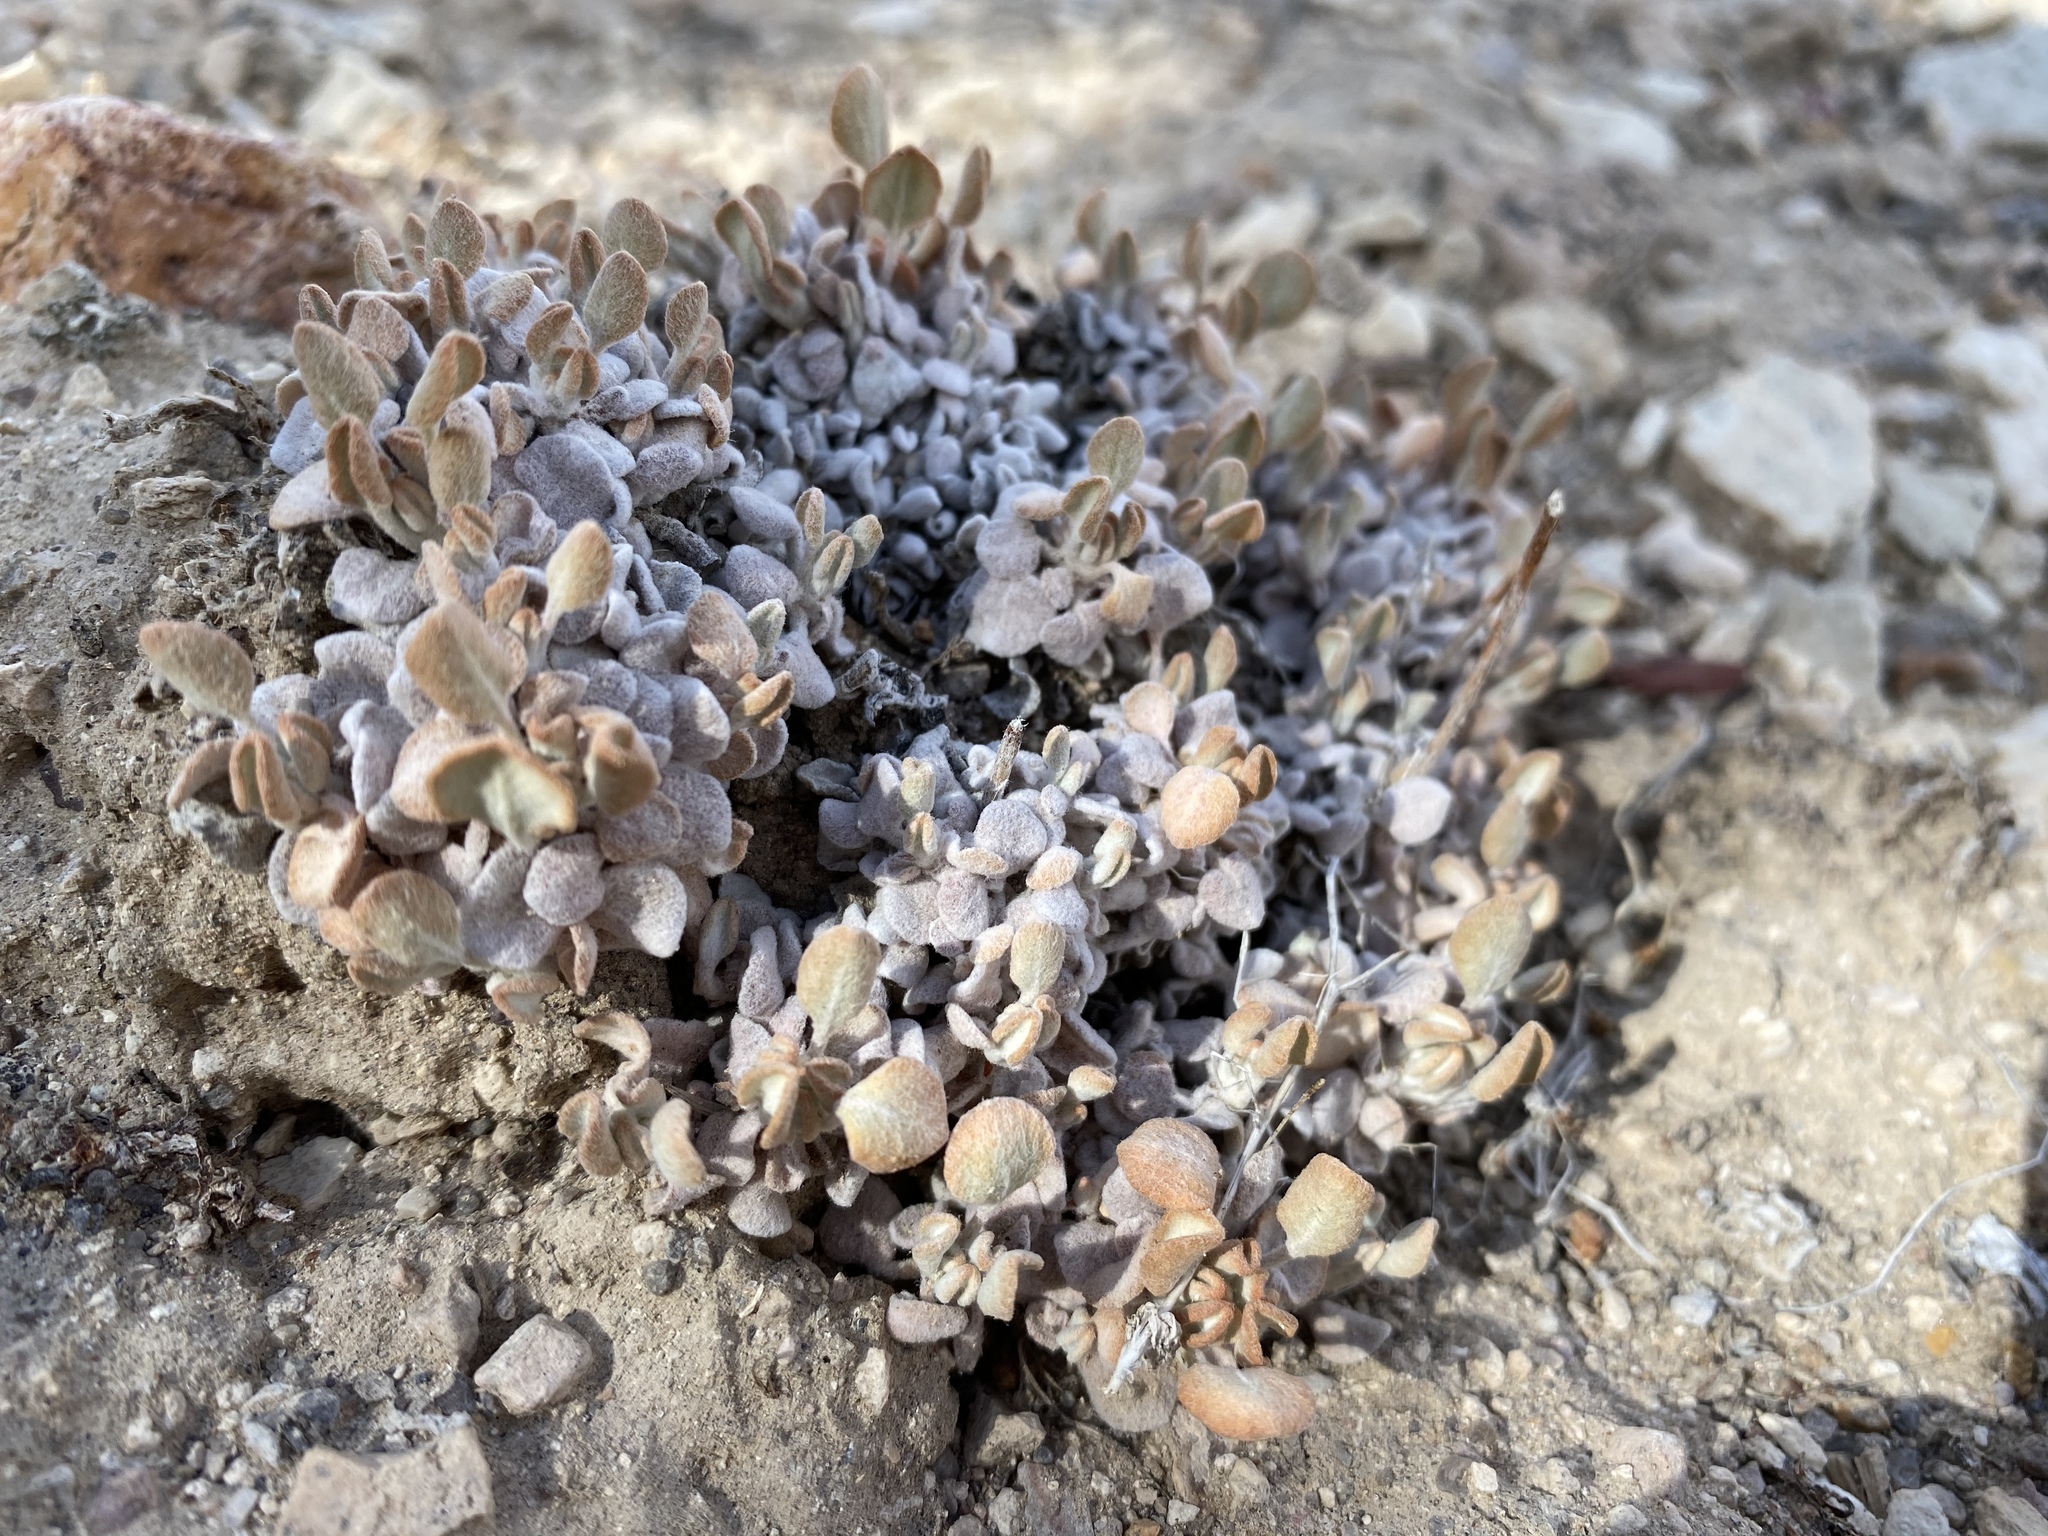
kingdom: Plantae
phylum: Tracheophyta
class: Magnoliopsida
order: Caryophyllales
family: Polygonaceae
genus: Eriogonum
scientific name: Eriogonum ovalifolium
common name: Cushion buckwheat
